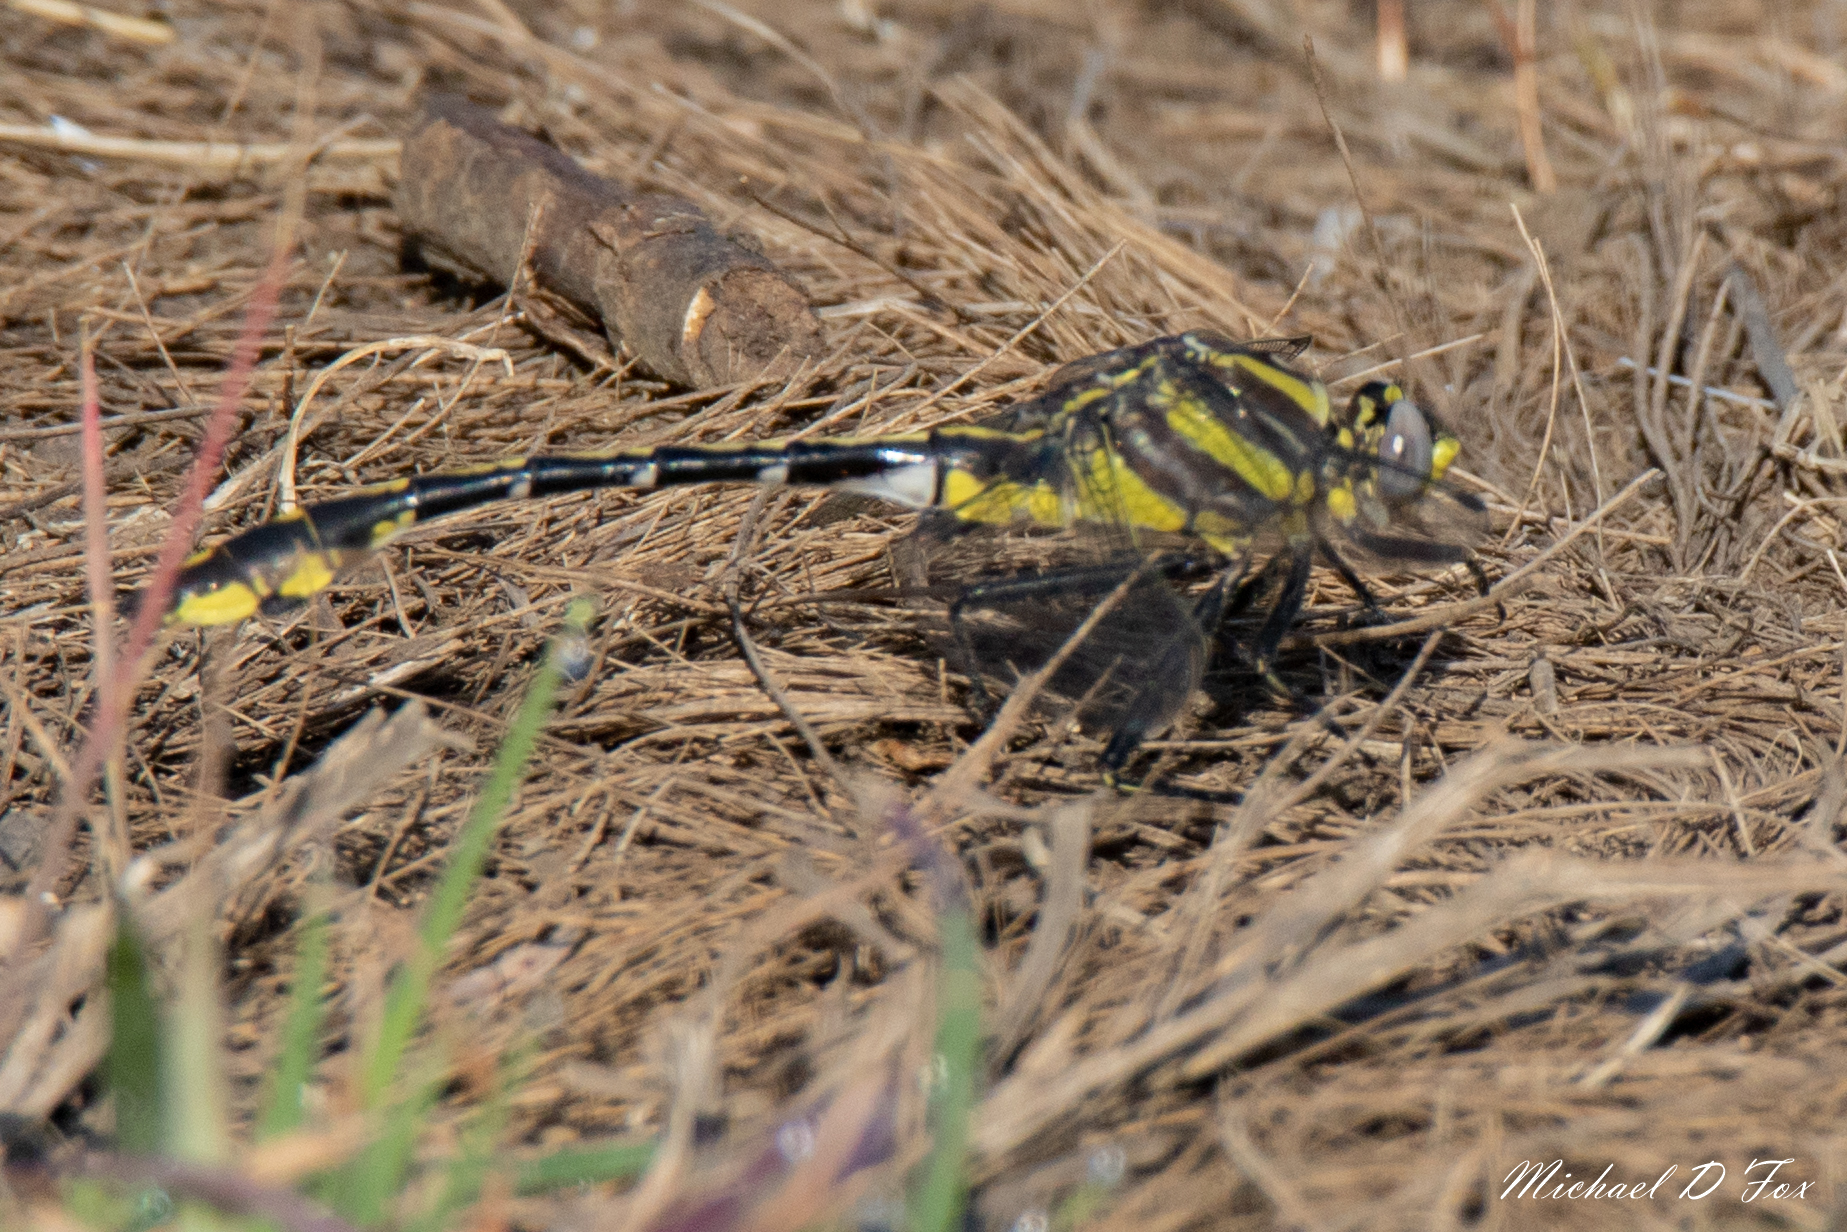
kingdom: Animalia
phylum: Arthropoda
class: Insecta
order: Odonata
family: Gomphidae
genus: Gomphurus
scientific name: Gomphurus externus
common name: Plains clubtail
